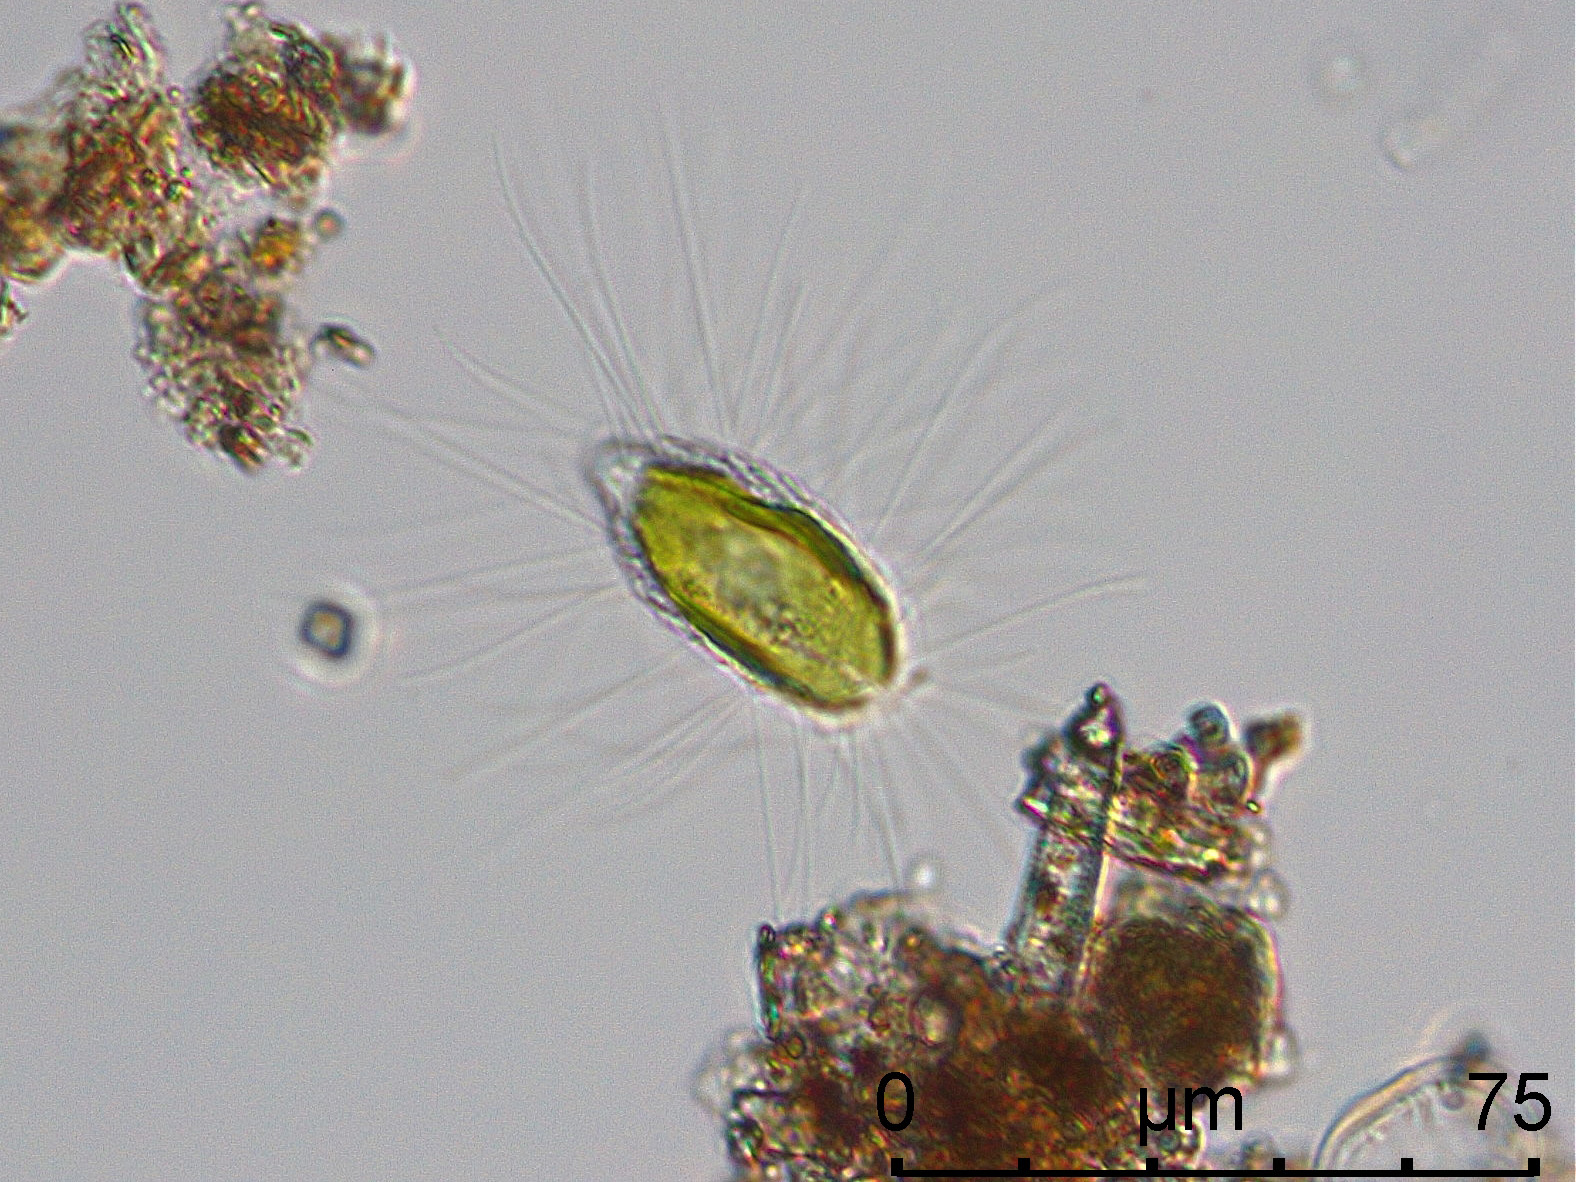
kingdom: Chromista
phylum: Ochrophyta
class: Chrysophyceae
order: Synurales
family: Mallomonadaceae
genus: Mallomonas
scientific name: Mallomonas caudata
